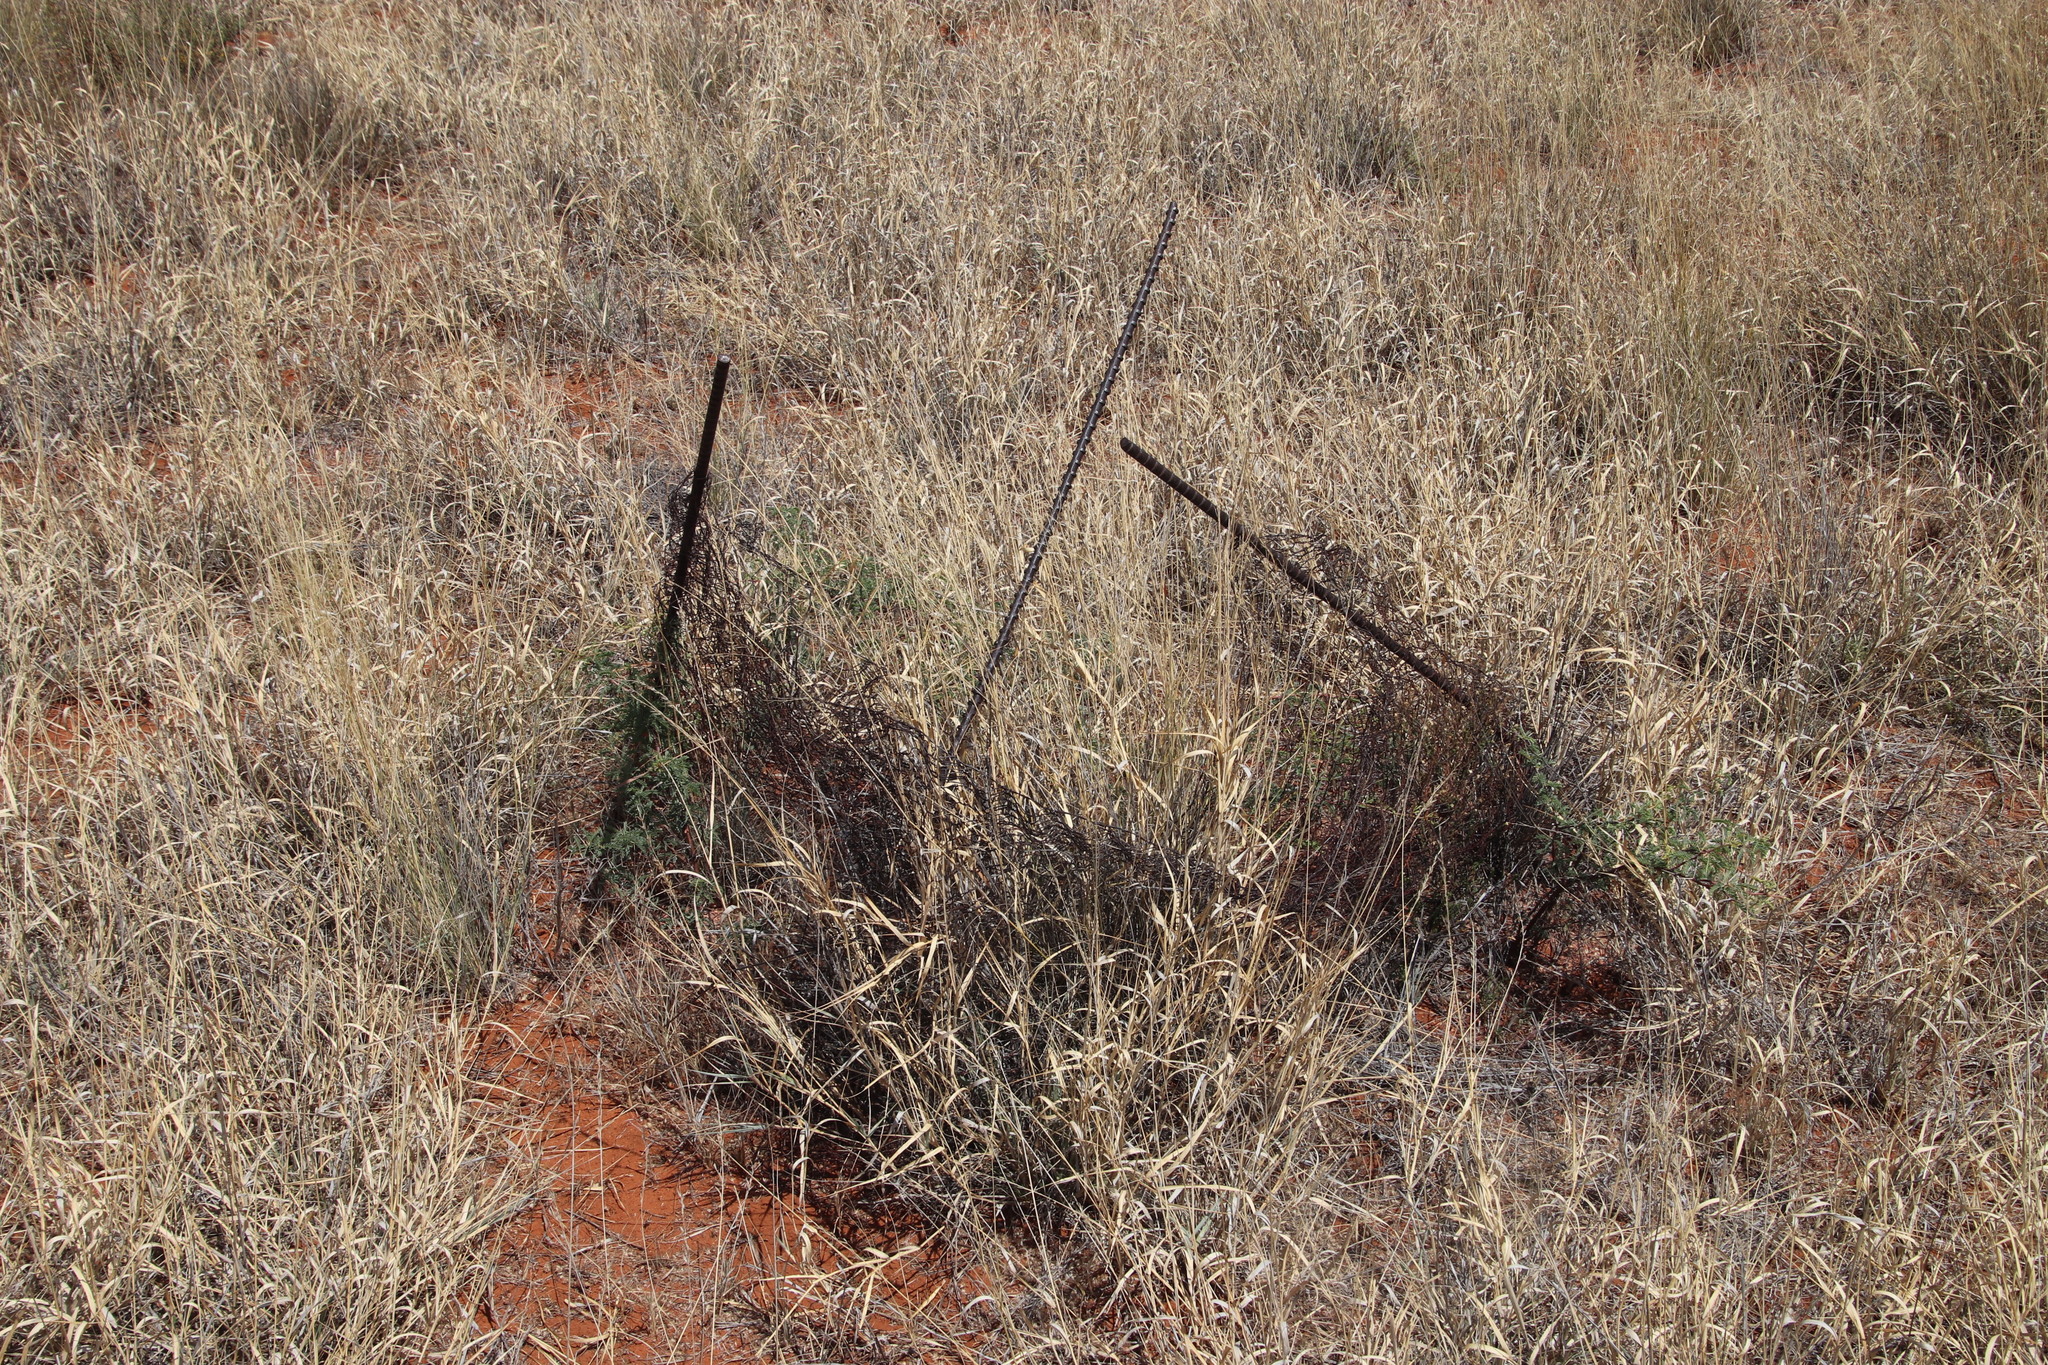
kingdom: Plantae
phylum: Tracheophyta
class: Magnoliopsida
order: Fabales
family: Fabaceae
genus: Vachellia
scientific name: Vachellia erioloba
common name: Camel thorn
